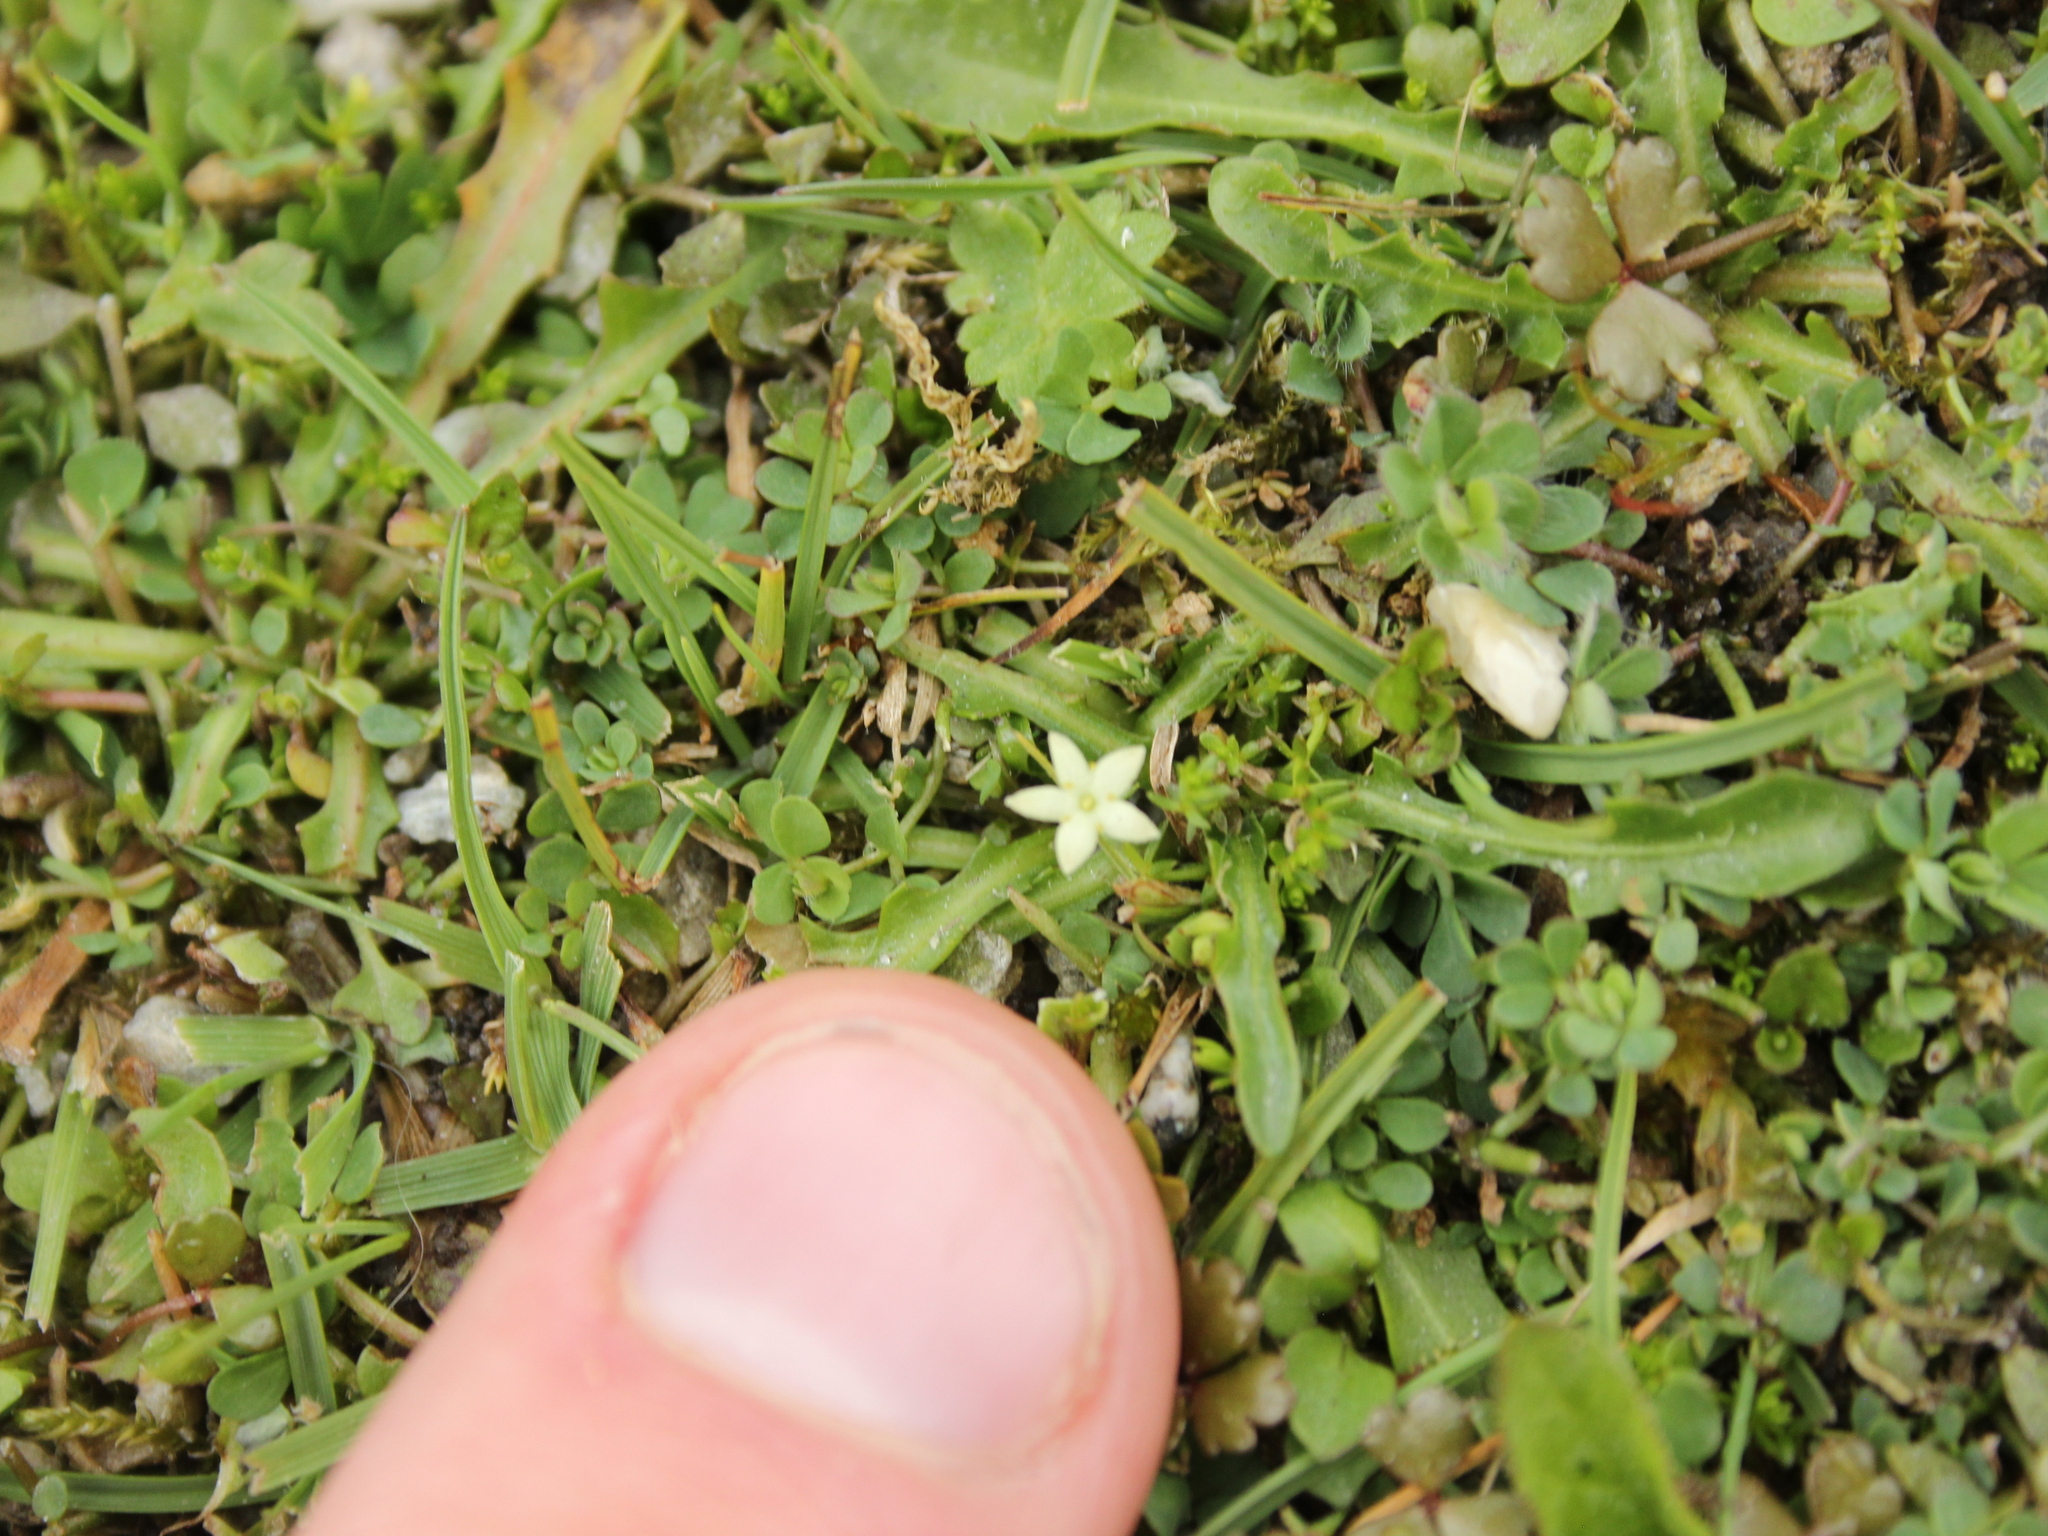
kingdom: Plantae
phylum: Tracheophyta
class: Magnoliopsida
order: Gentianales
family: Rubiaceae
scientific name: Rubiaceae
